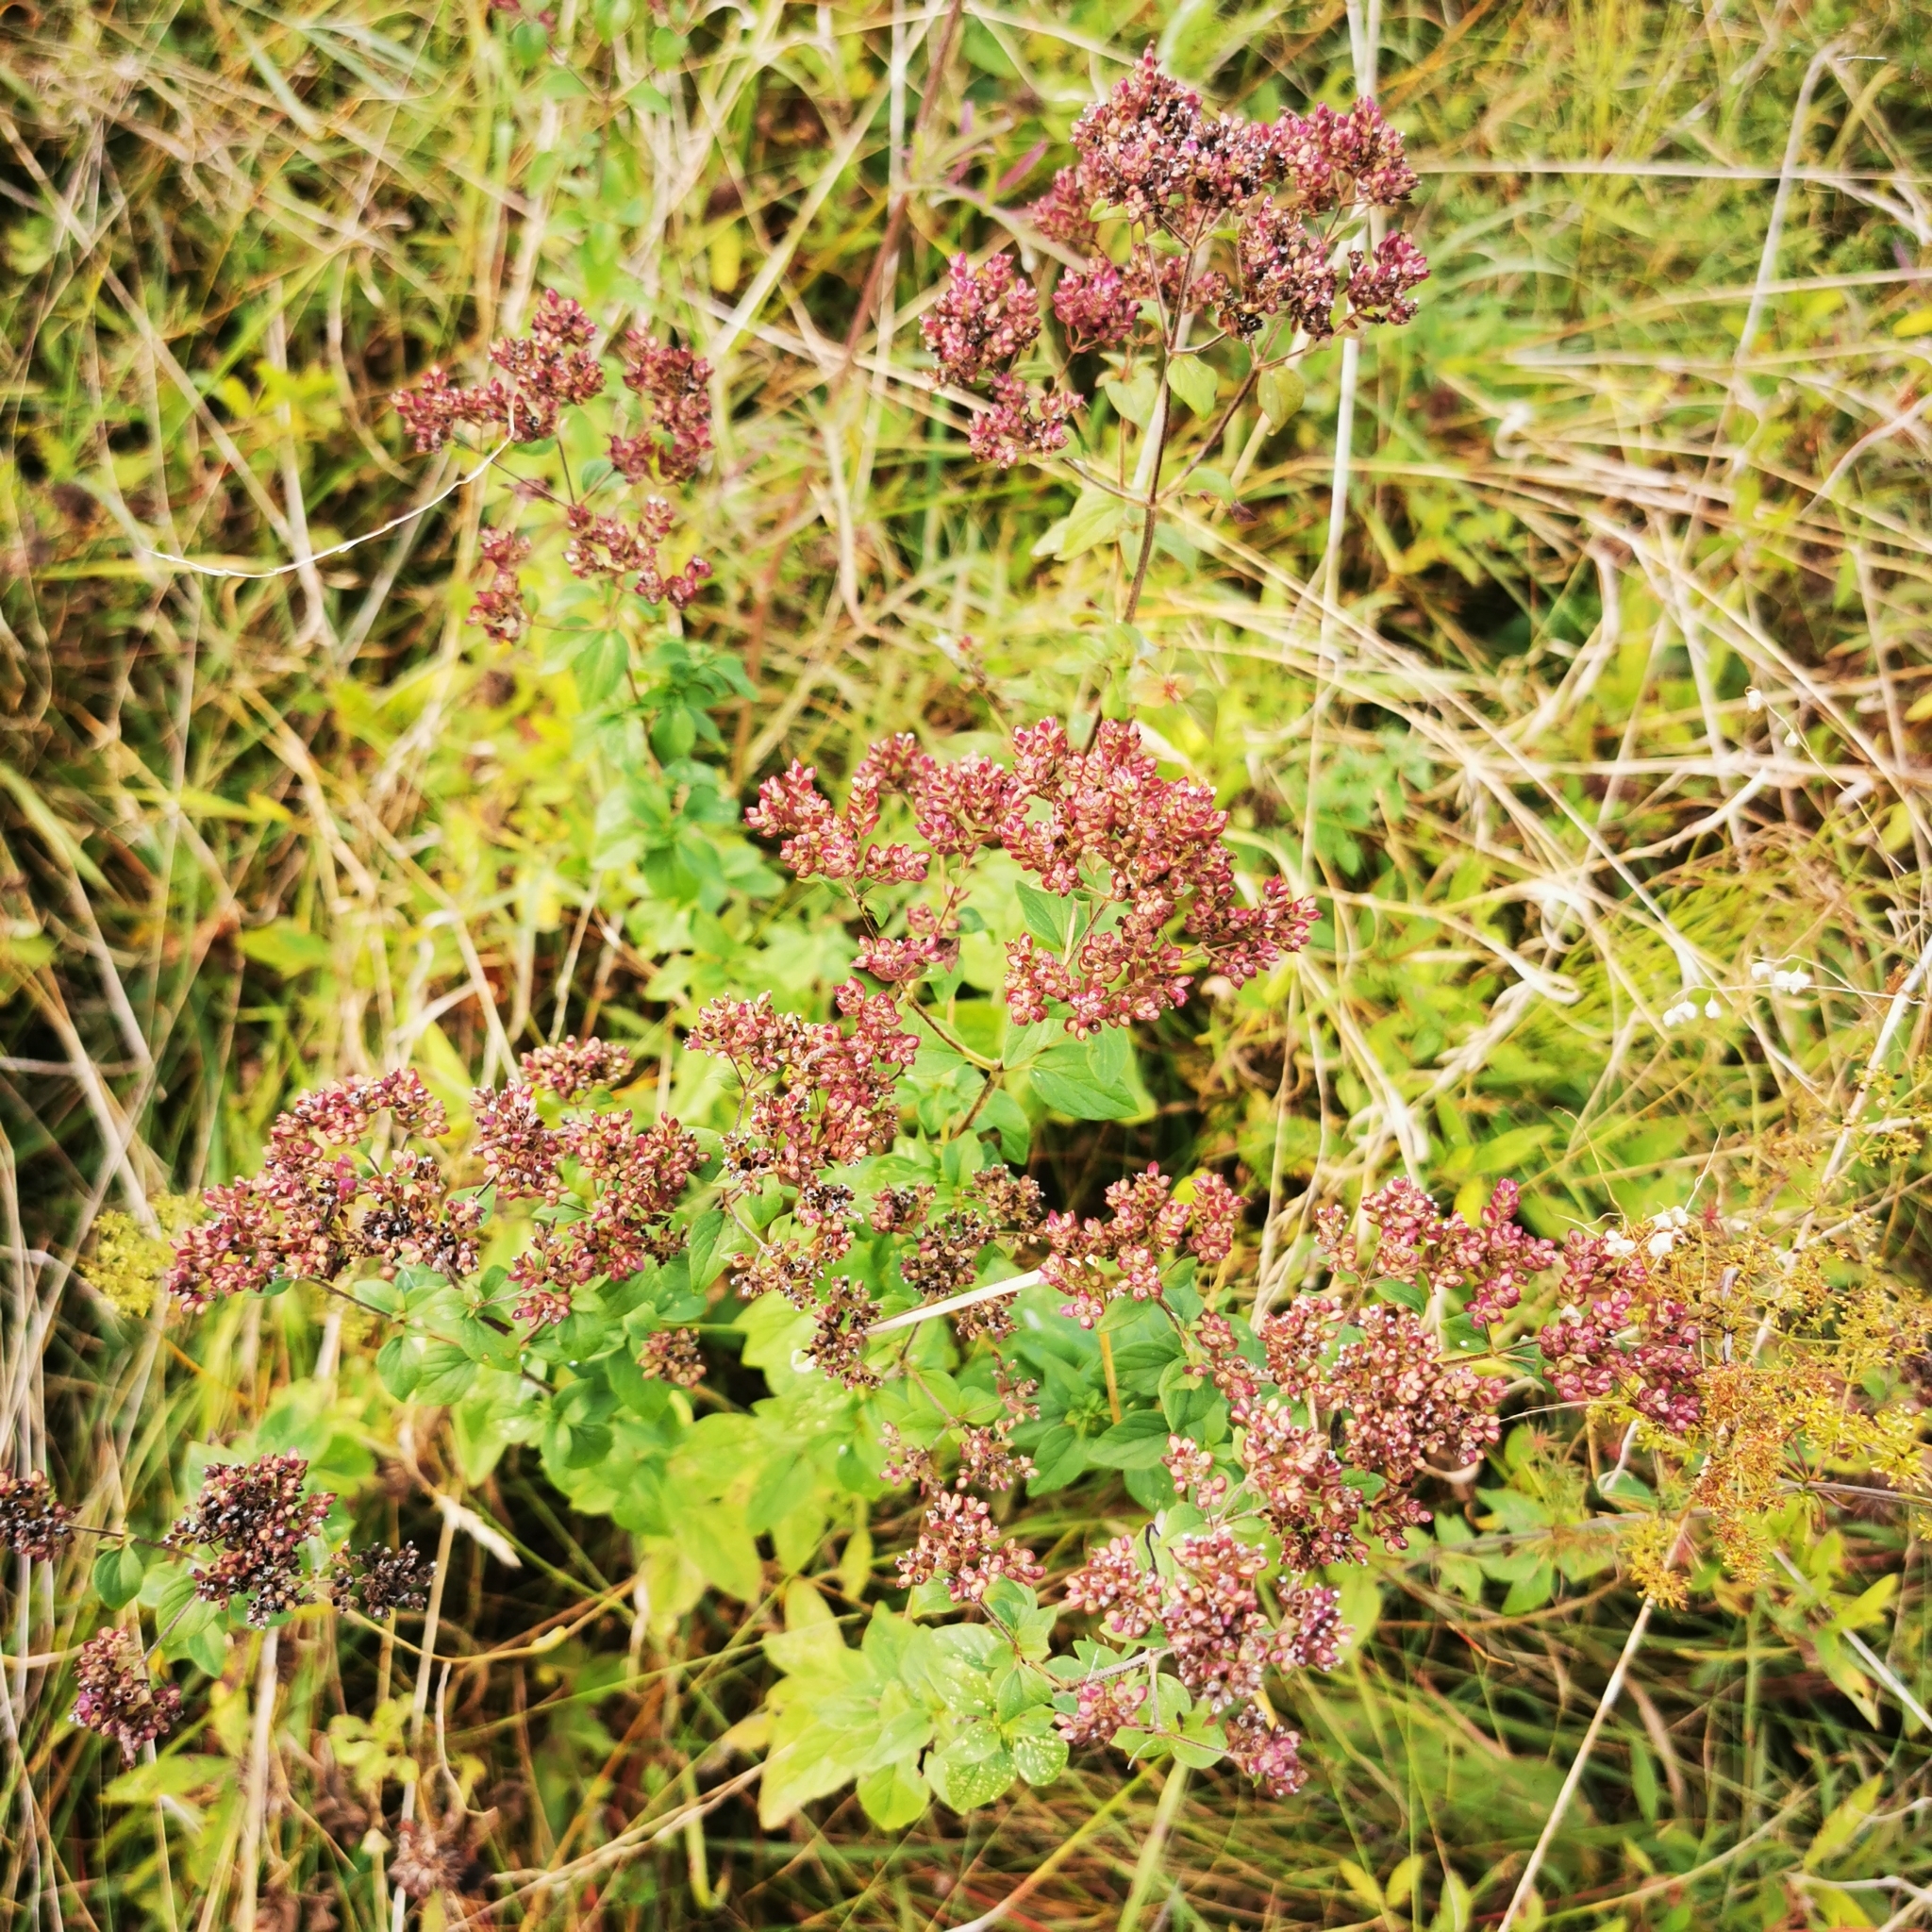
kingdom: Plantae
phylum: Tracheophyta
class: Magnoliopsida
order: Lamiales
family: Lamiaceae
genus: Origanum
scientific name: Origanum vulgare
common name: Wild marjoram
